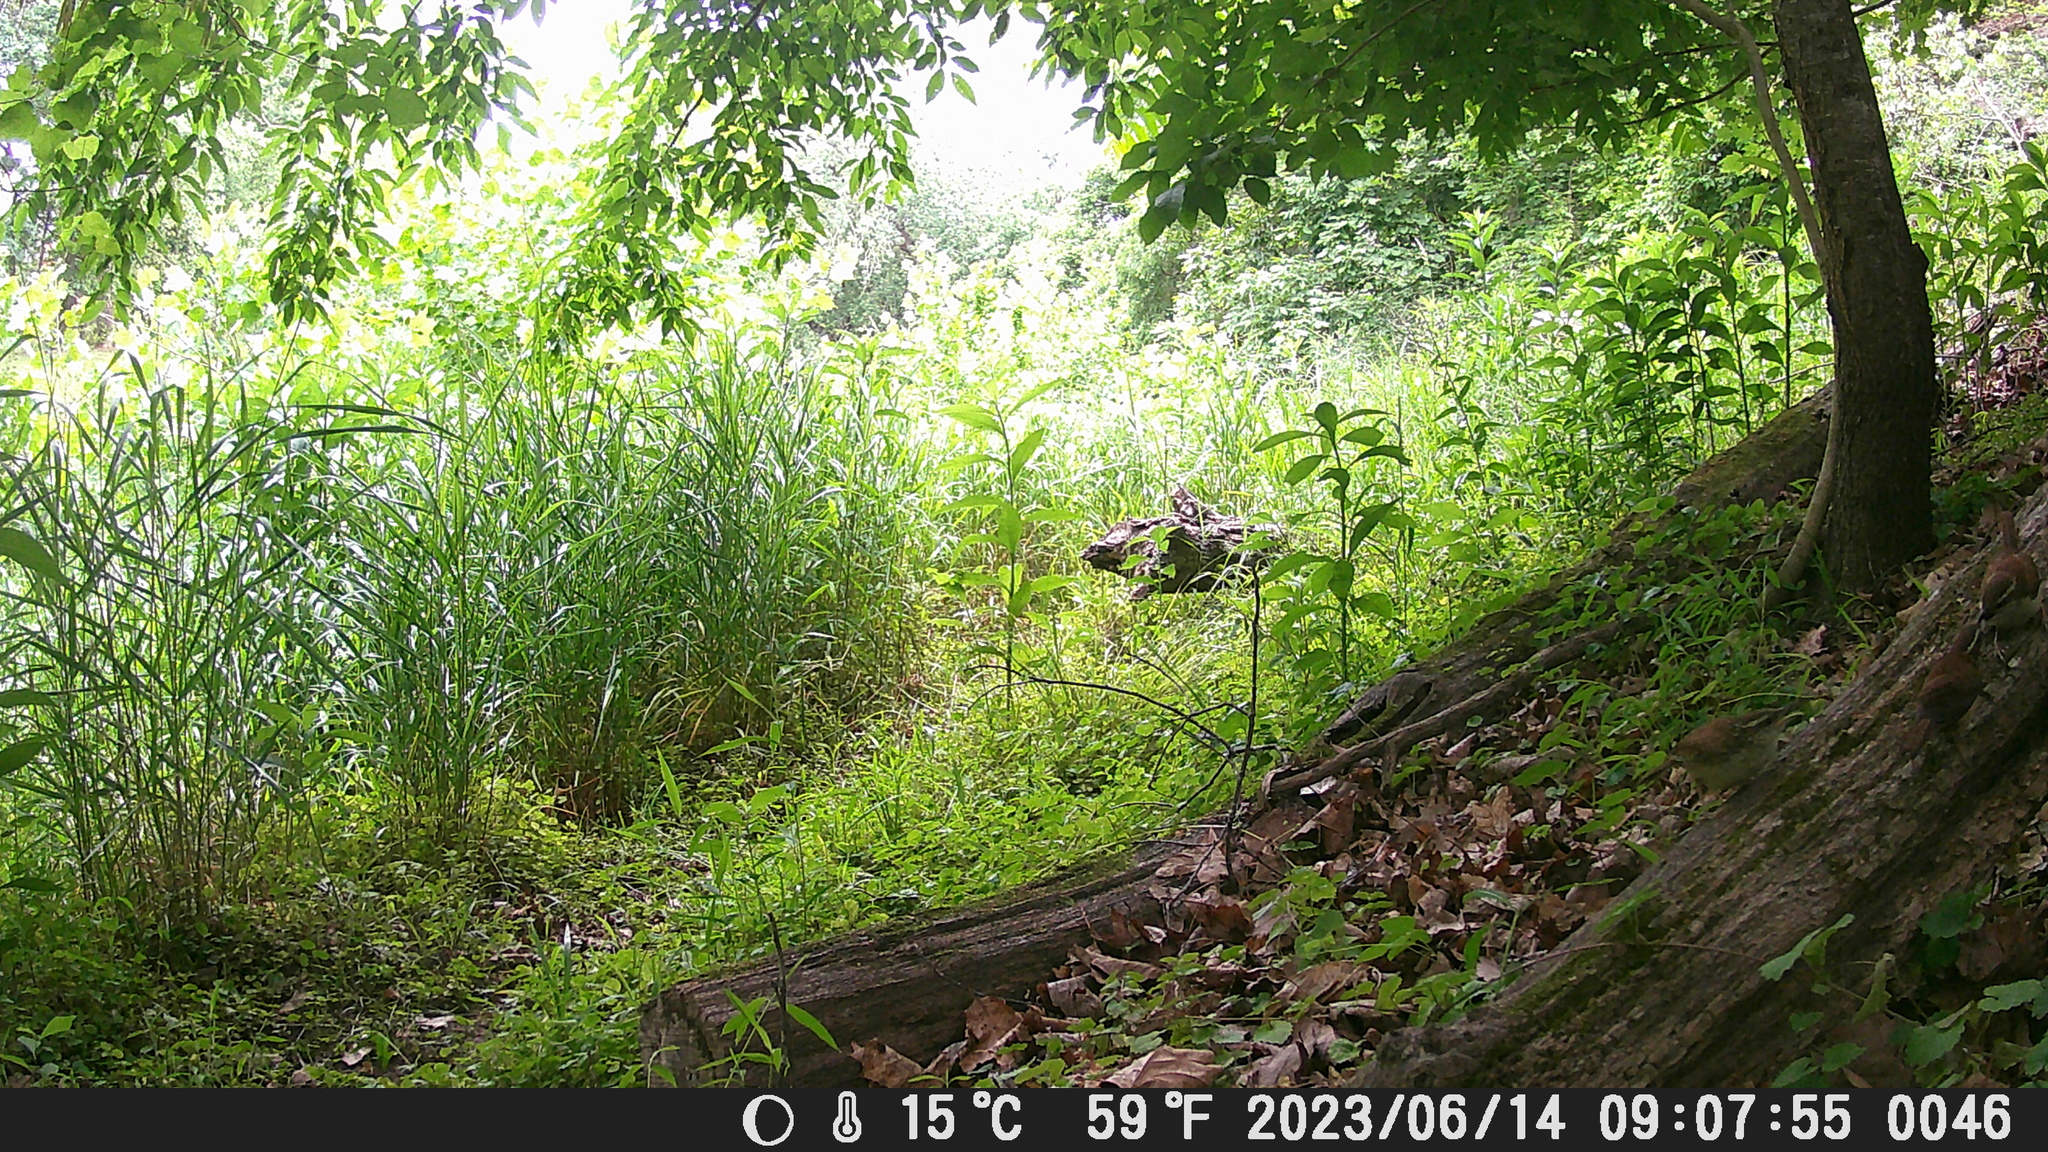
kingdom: Animalia
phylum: Chordata
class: Aves
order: Passeriformes
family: Troglodytidae
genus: Thryothorus
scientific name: Thryothorus ludovicianus
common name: Carolina wren
